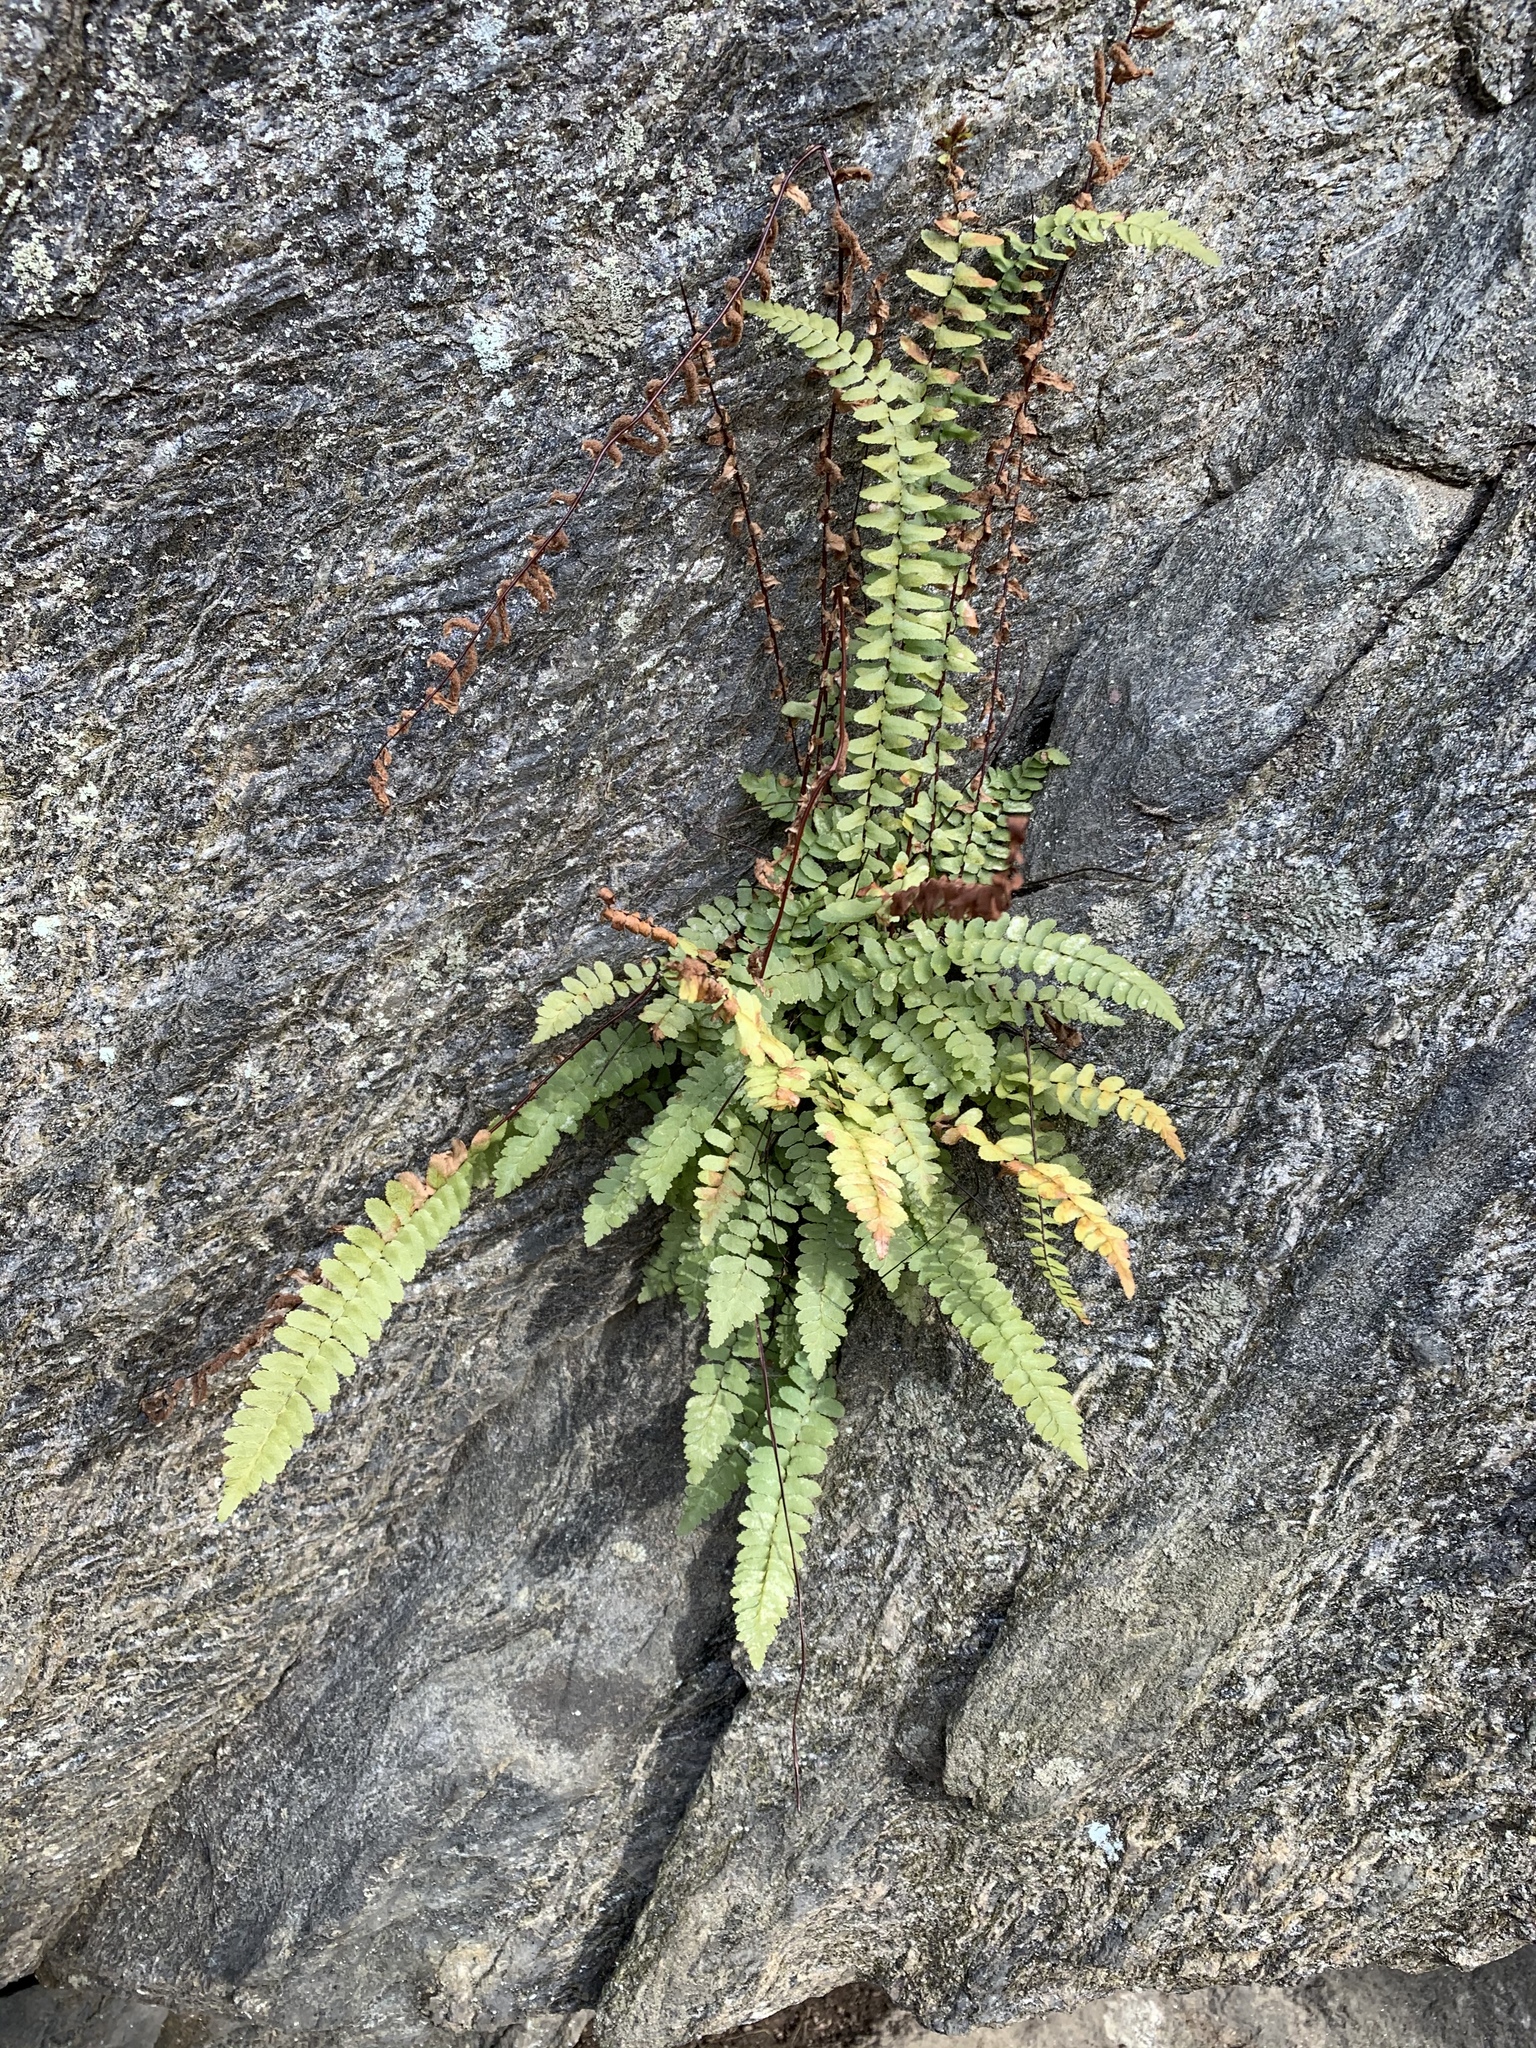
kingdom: Plantae
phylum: Tracheophyta
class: Polypodiopsida
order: Polypodiales
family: Aspleniaceae
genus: Asplenium
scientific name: Asplenium platyneuron
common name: Ebony spleenwort
